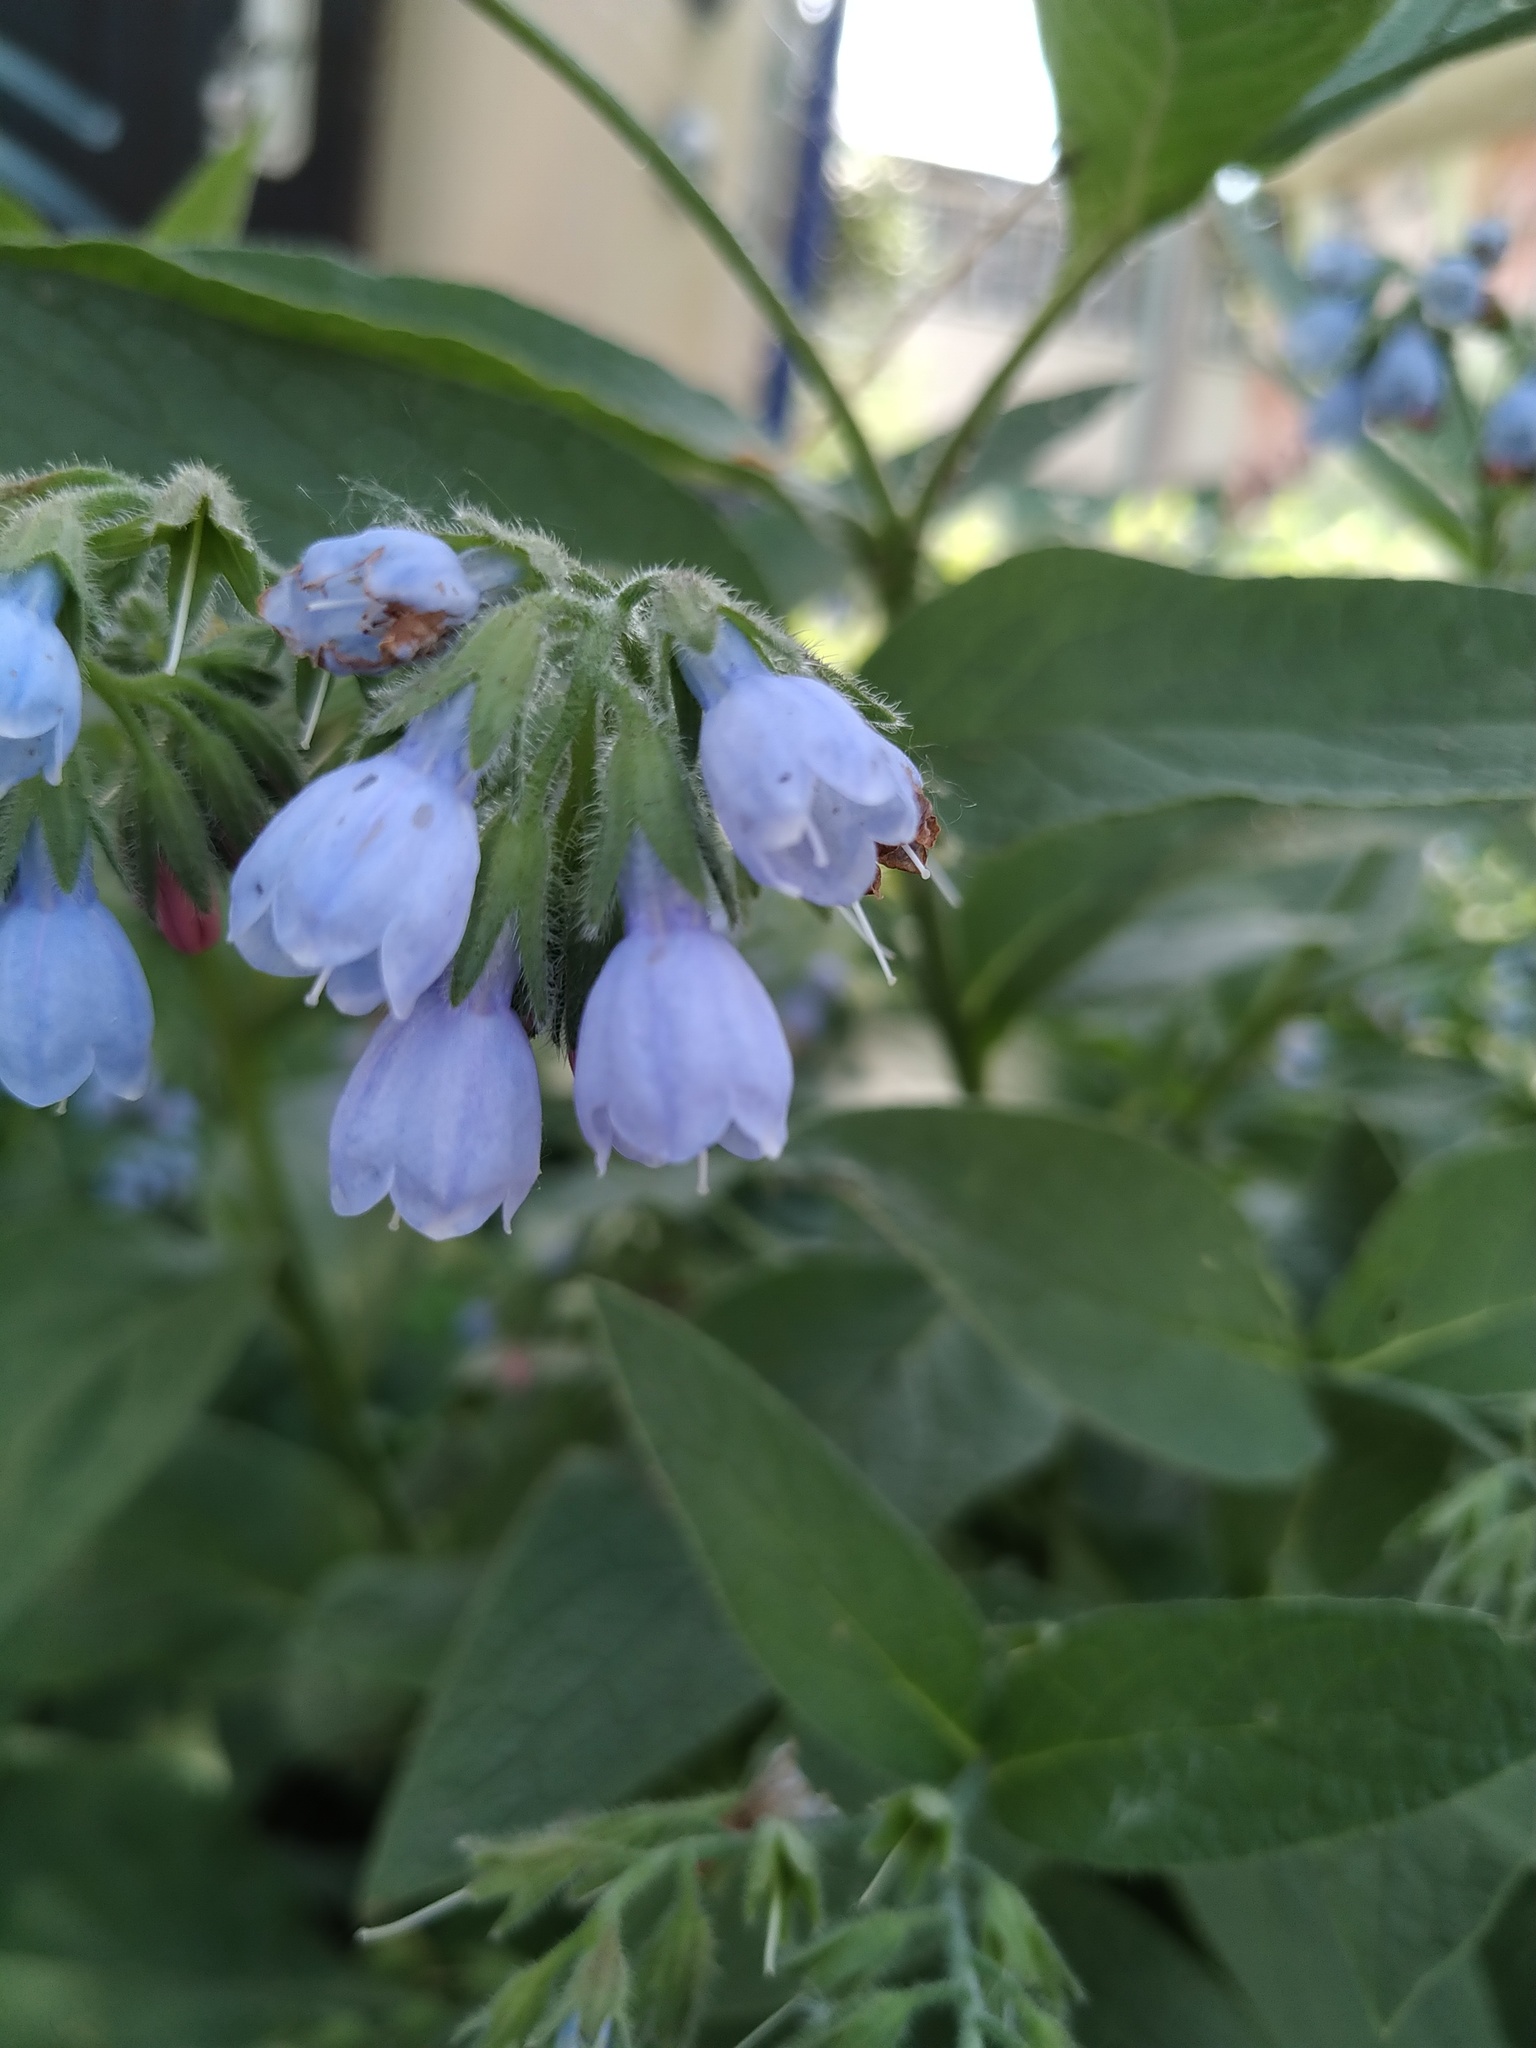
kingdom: Plantae
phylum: Tracheophyta
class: Magnoliopsida
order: Boraginales
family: Boraginaceae
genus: Symphytum
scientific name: Symphytum caucasicum
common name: Caucasian comfrey
